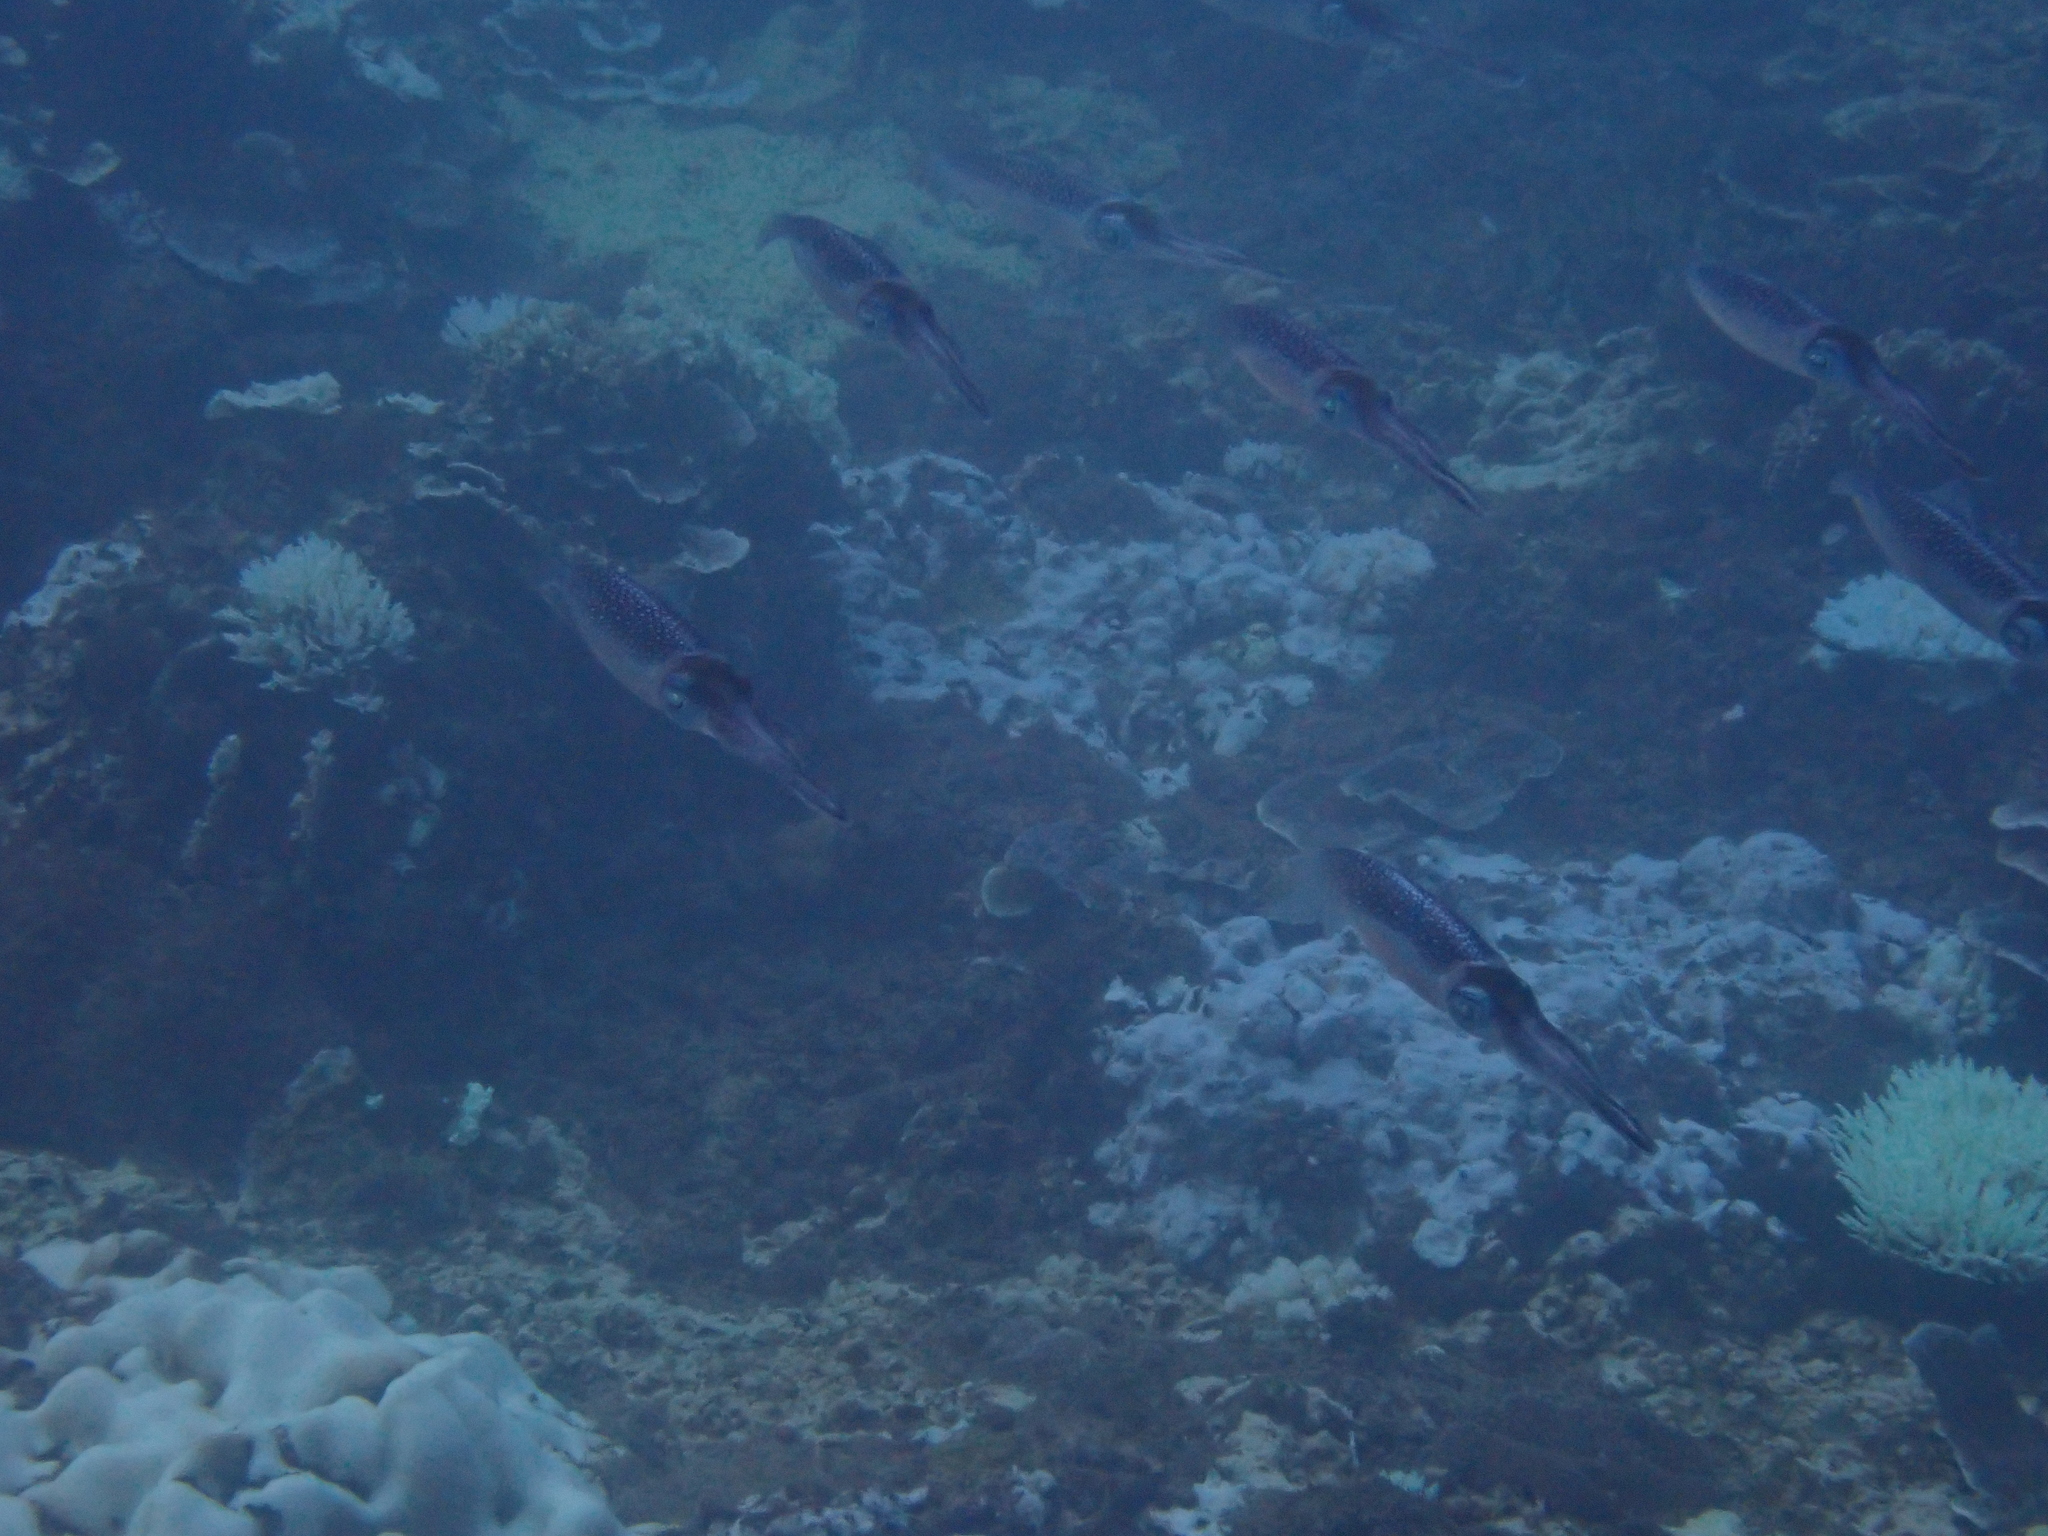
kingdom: Animalia
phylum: Mollusca
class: Cephalopoda
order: Myopsida
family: Loliginidae
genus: Sepioteuthis
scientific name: Sepioteuthis lessoniana
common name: Bigfin reef squid
